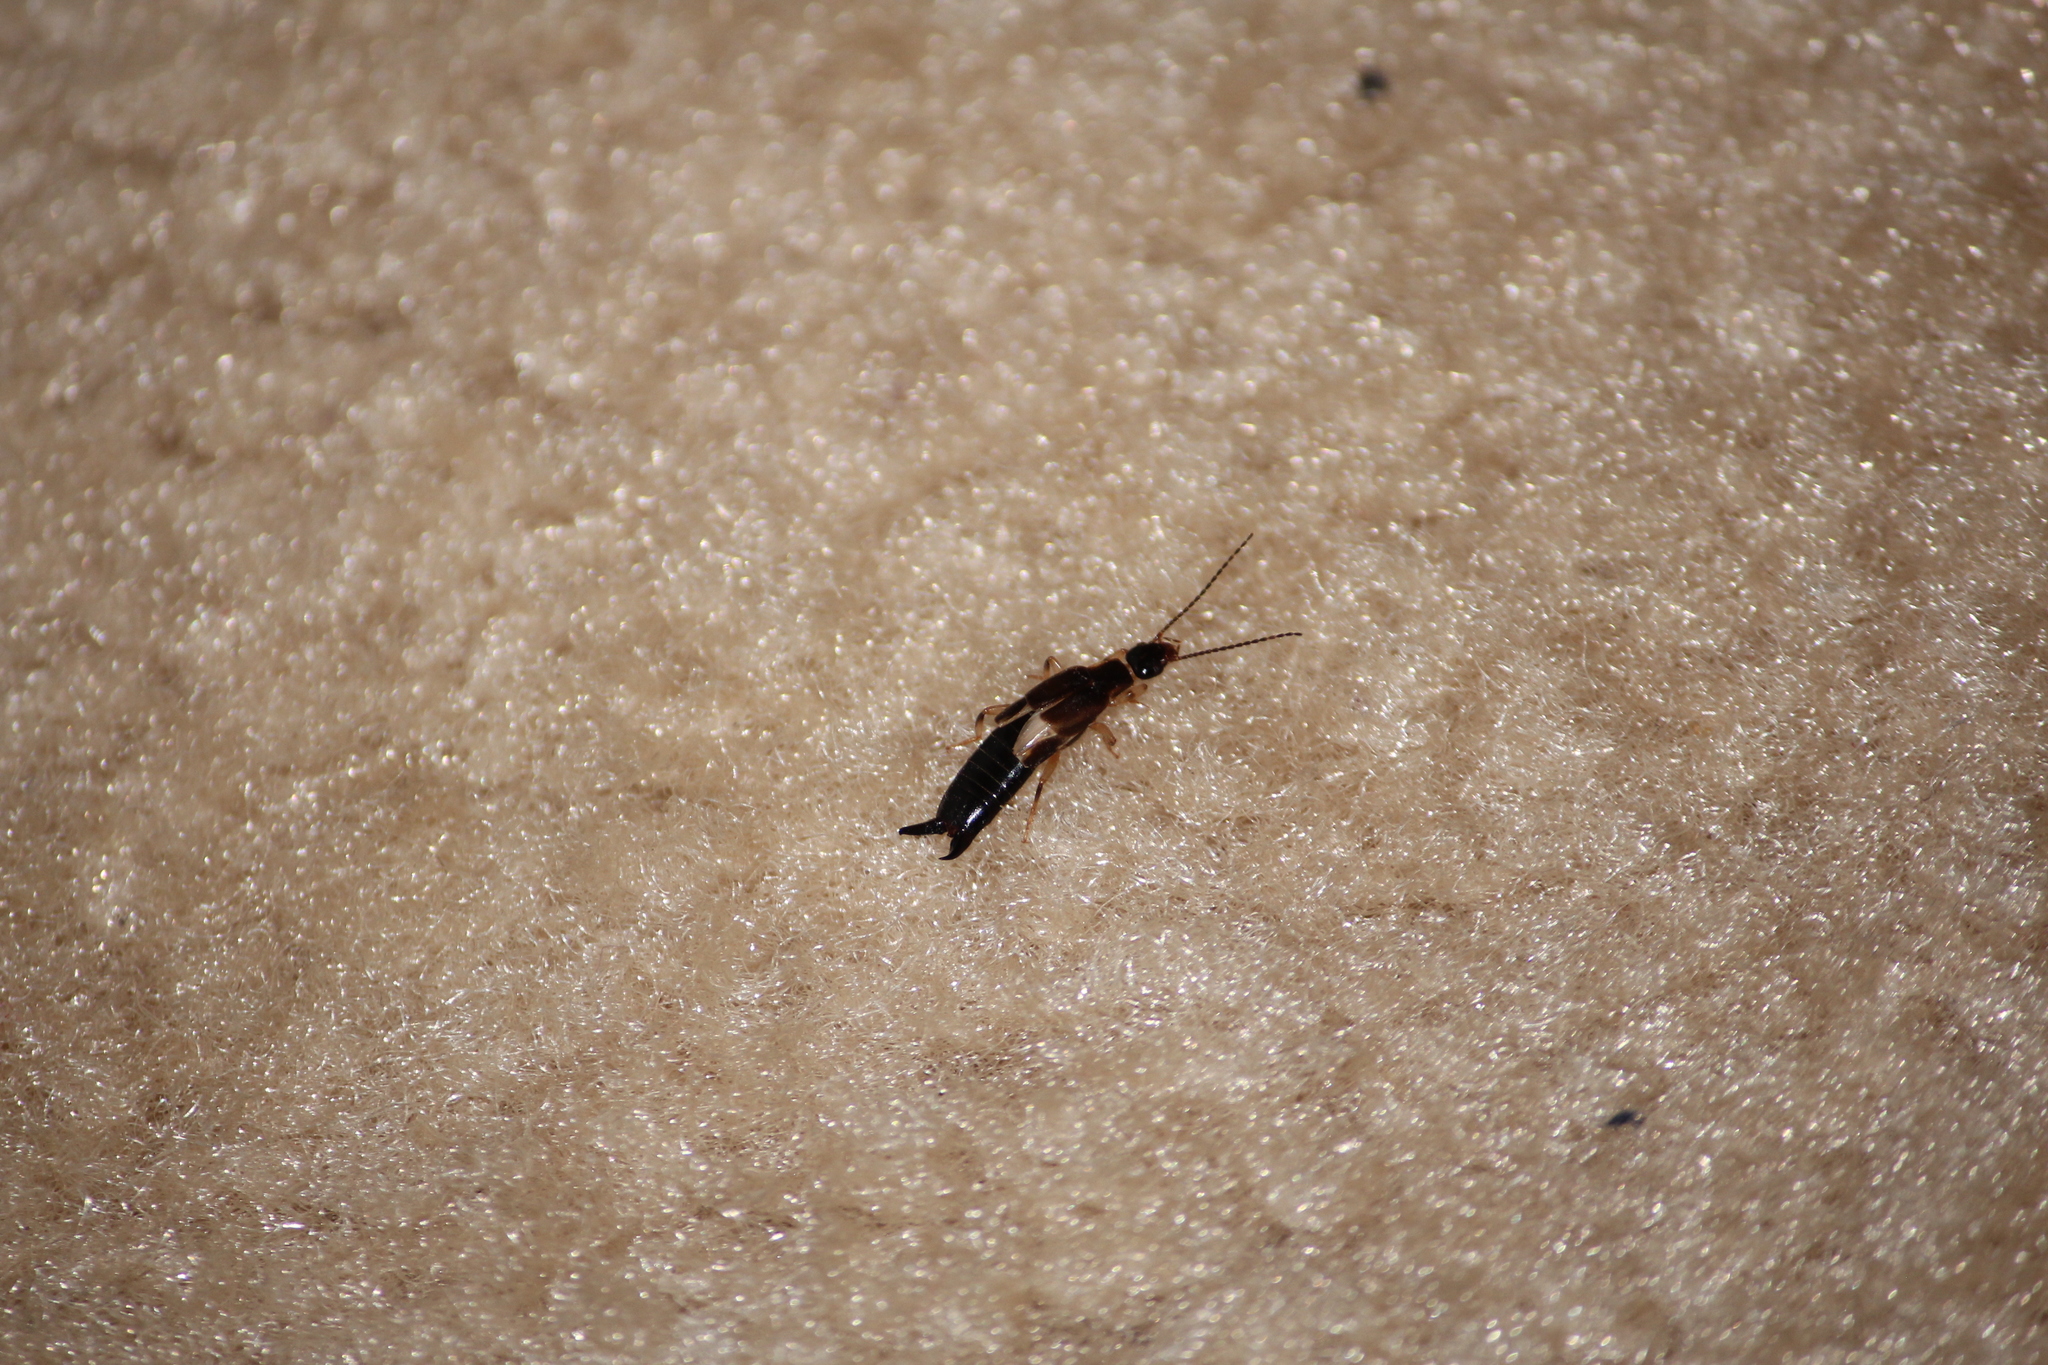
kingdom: Animalia
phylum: Arthropoda
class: Insecta
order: Dermaptera
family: Anisolabididae
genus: Euborellia
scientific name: Euborellia cincticollis
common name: African earwig
